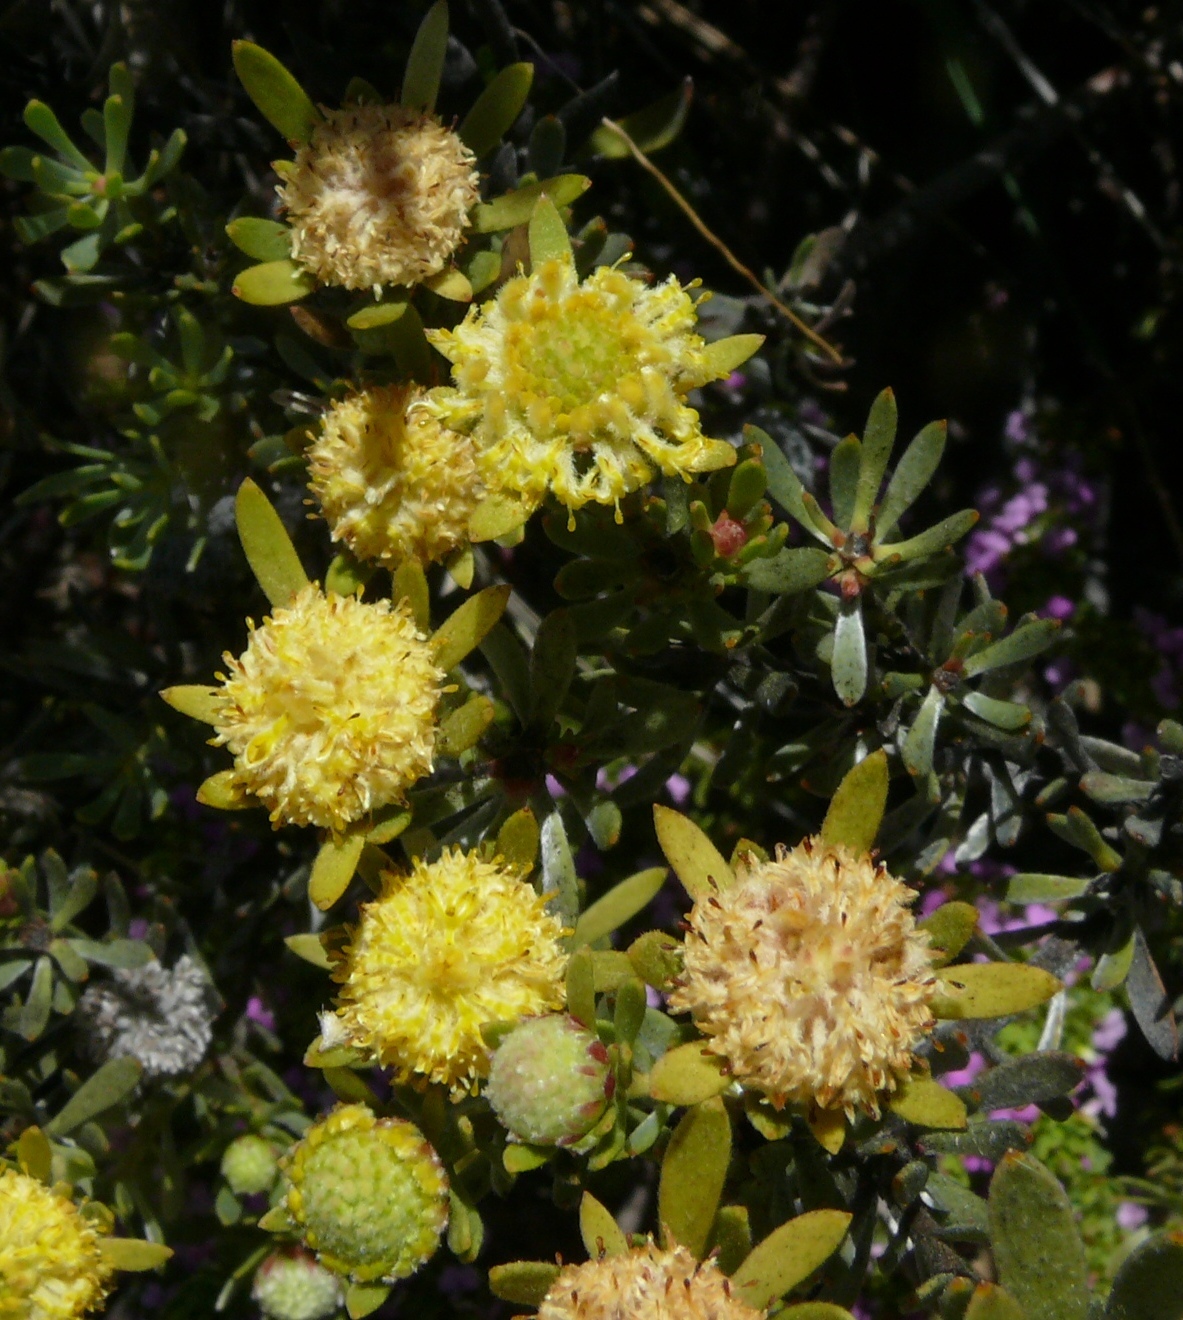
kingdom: Plantae
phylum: Tracheophyta
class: Magnoliopsida
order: Proteales
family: Proteaceae
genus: Leucadendron
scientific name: Leucadendron nitidum
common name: Bokkeveld conebush
